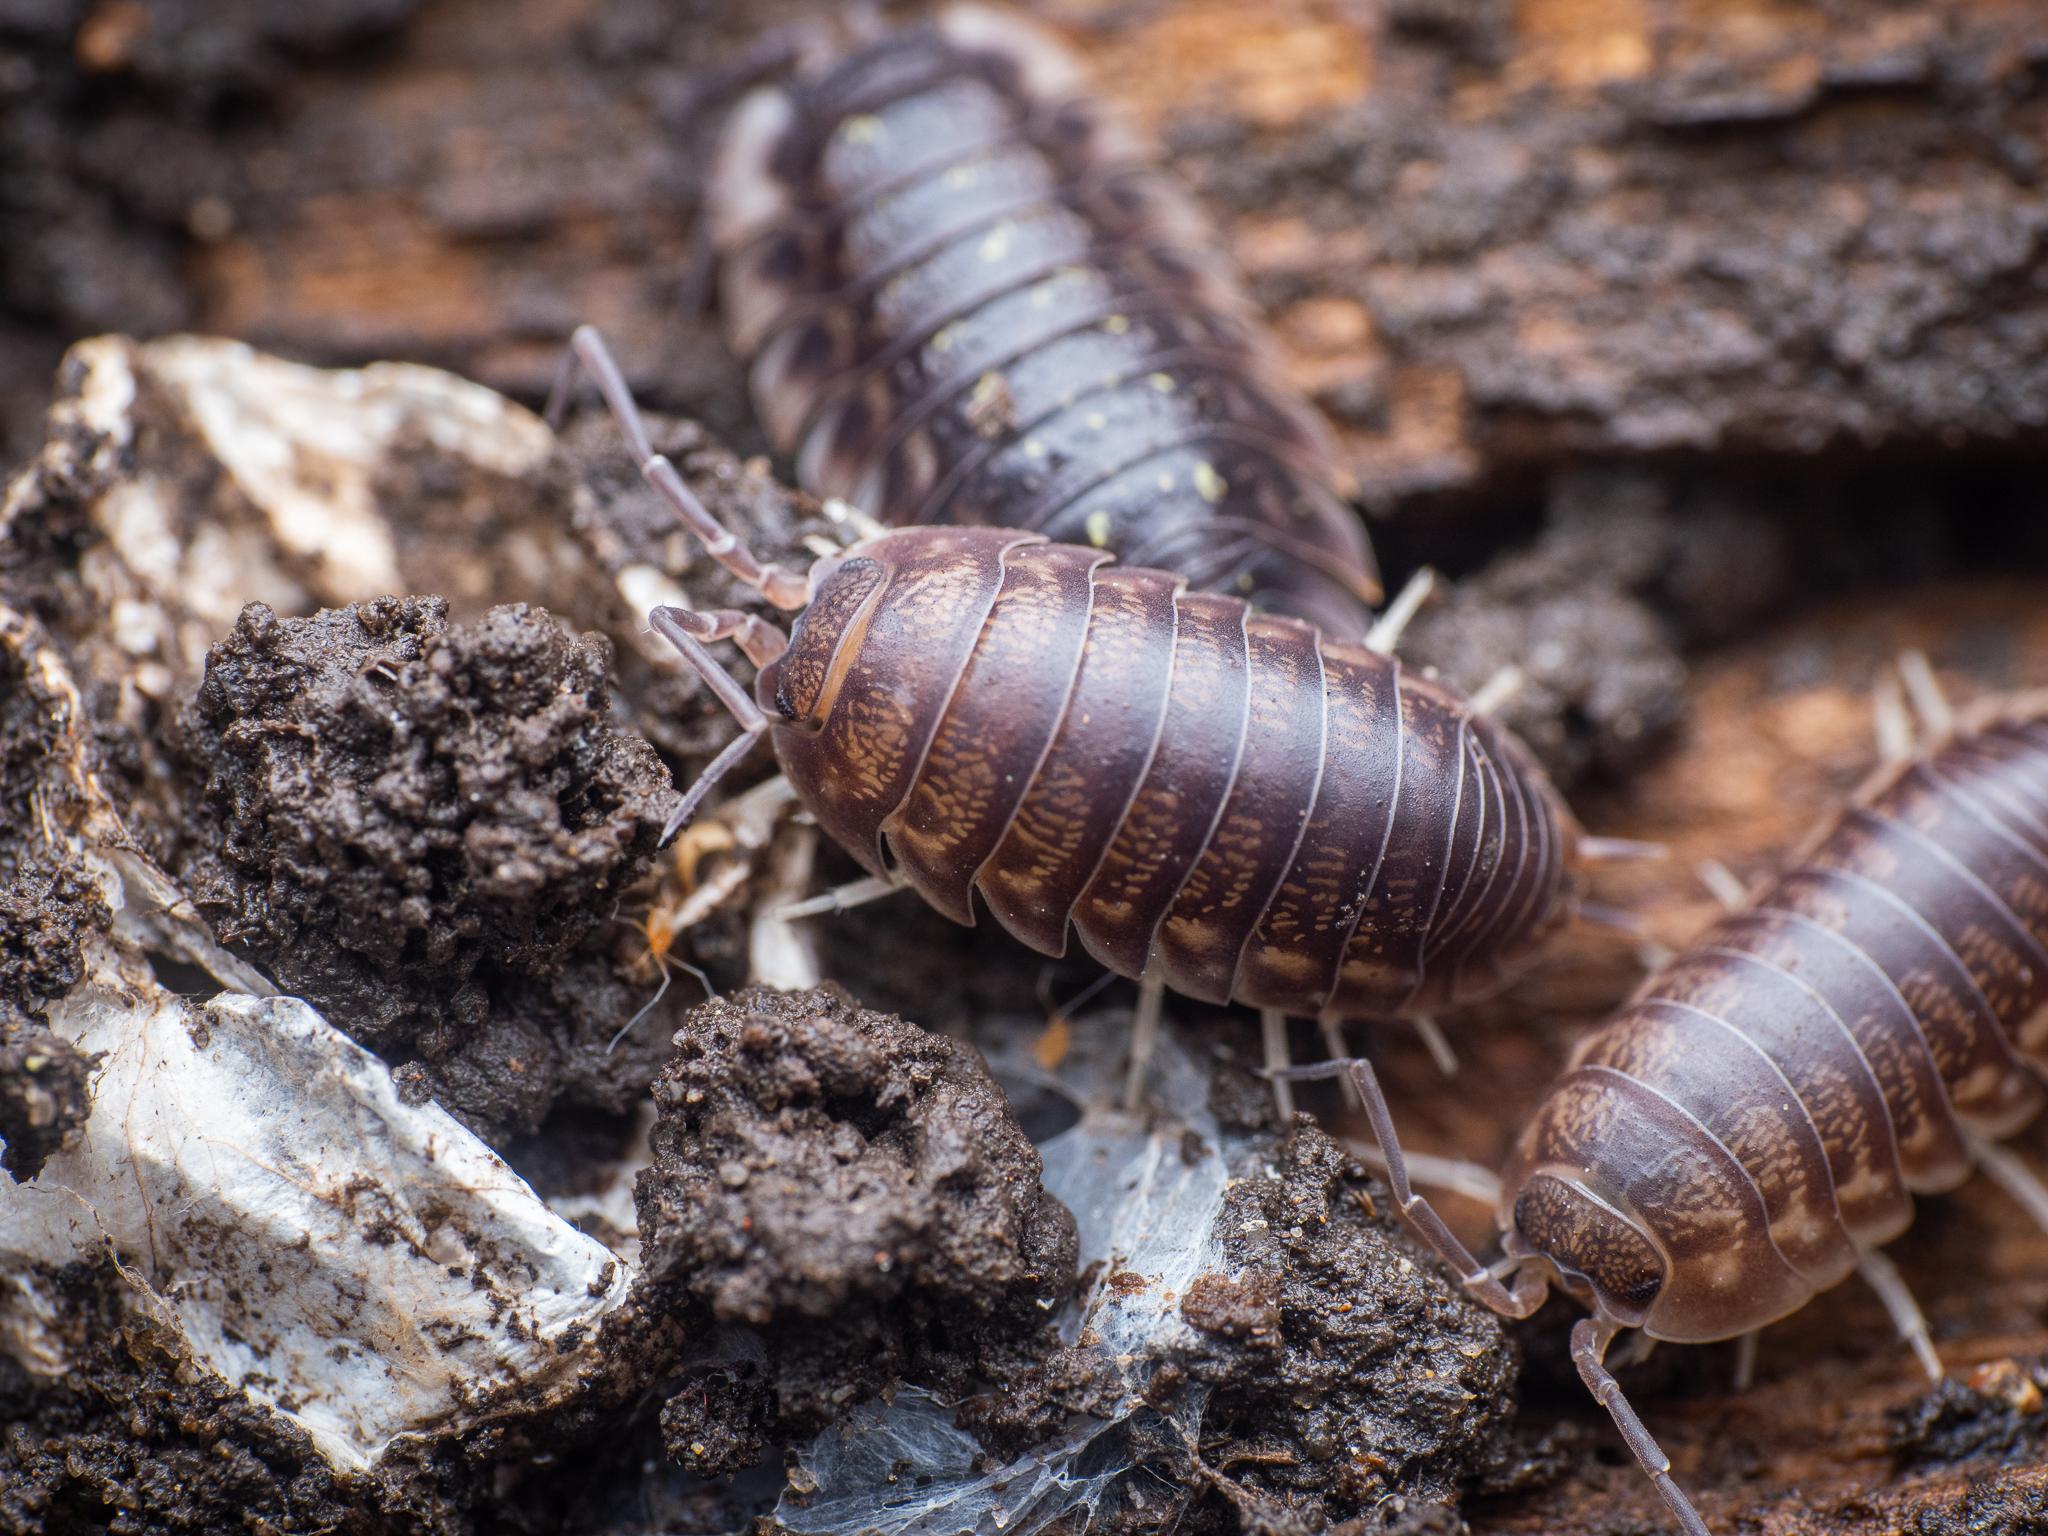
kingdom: Animalia
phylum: Arthropoda
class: Malacostraca
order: Isopoda
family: Cylisticidae
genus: Cylisticus
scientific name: Cylisticus convexus
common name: Curly woodlouse
